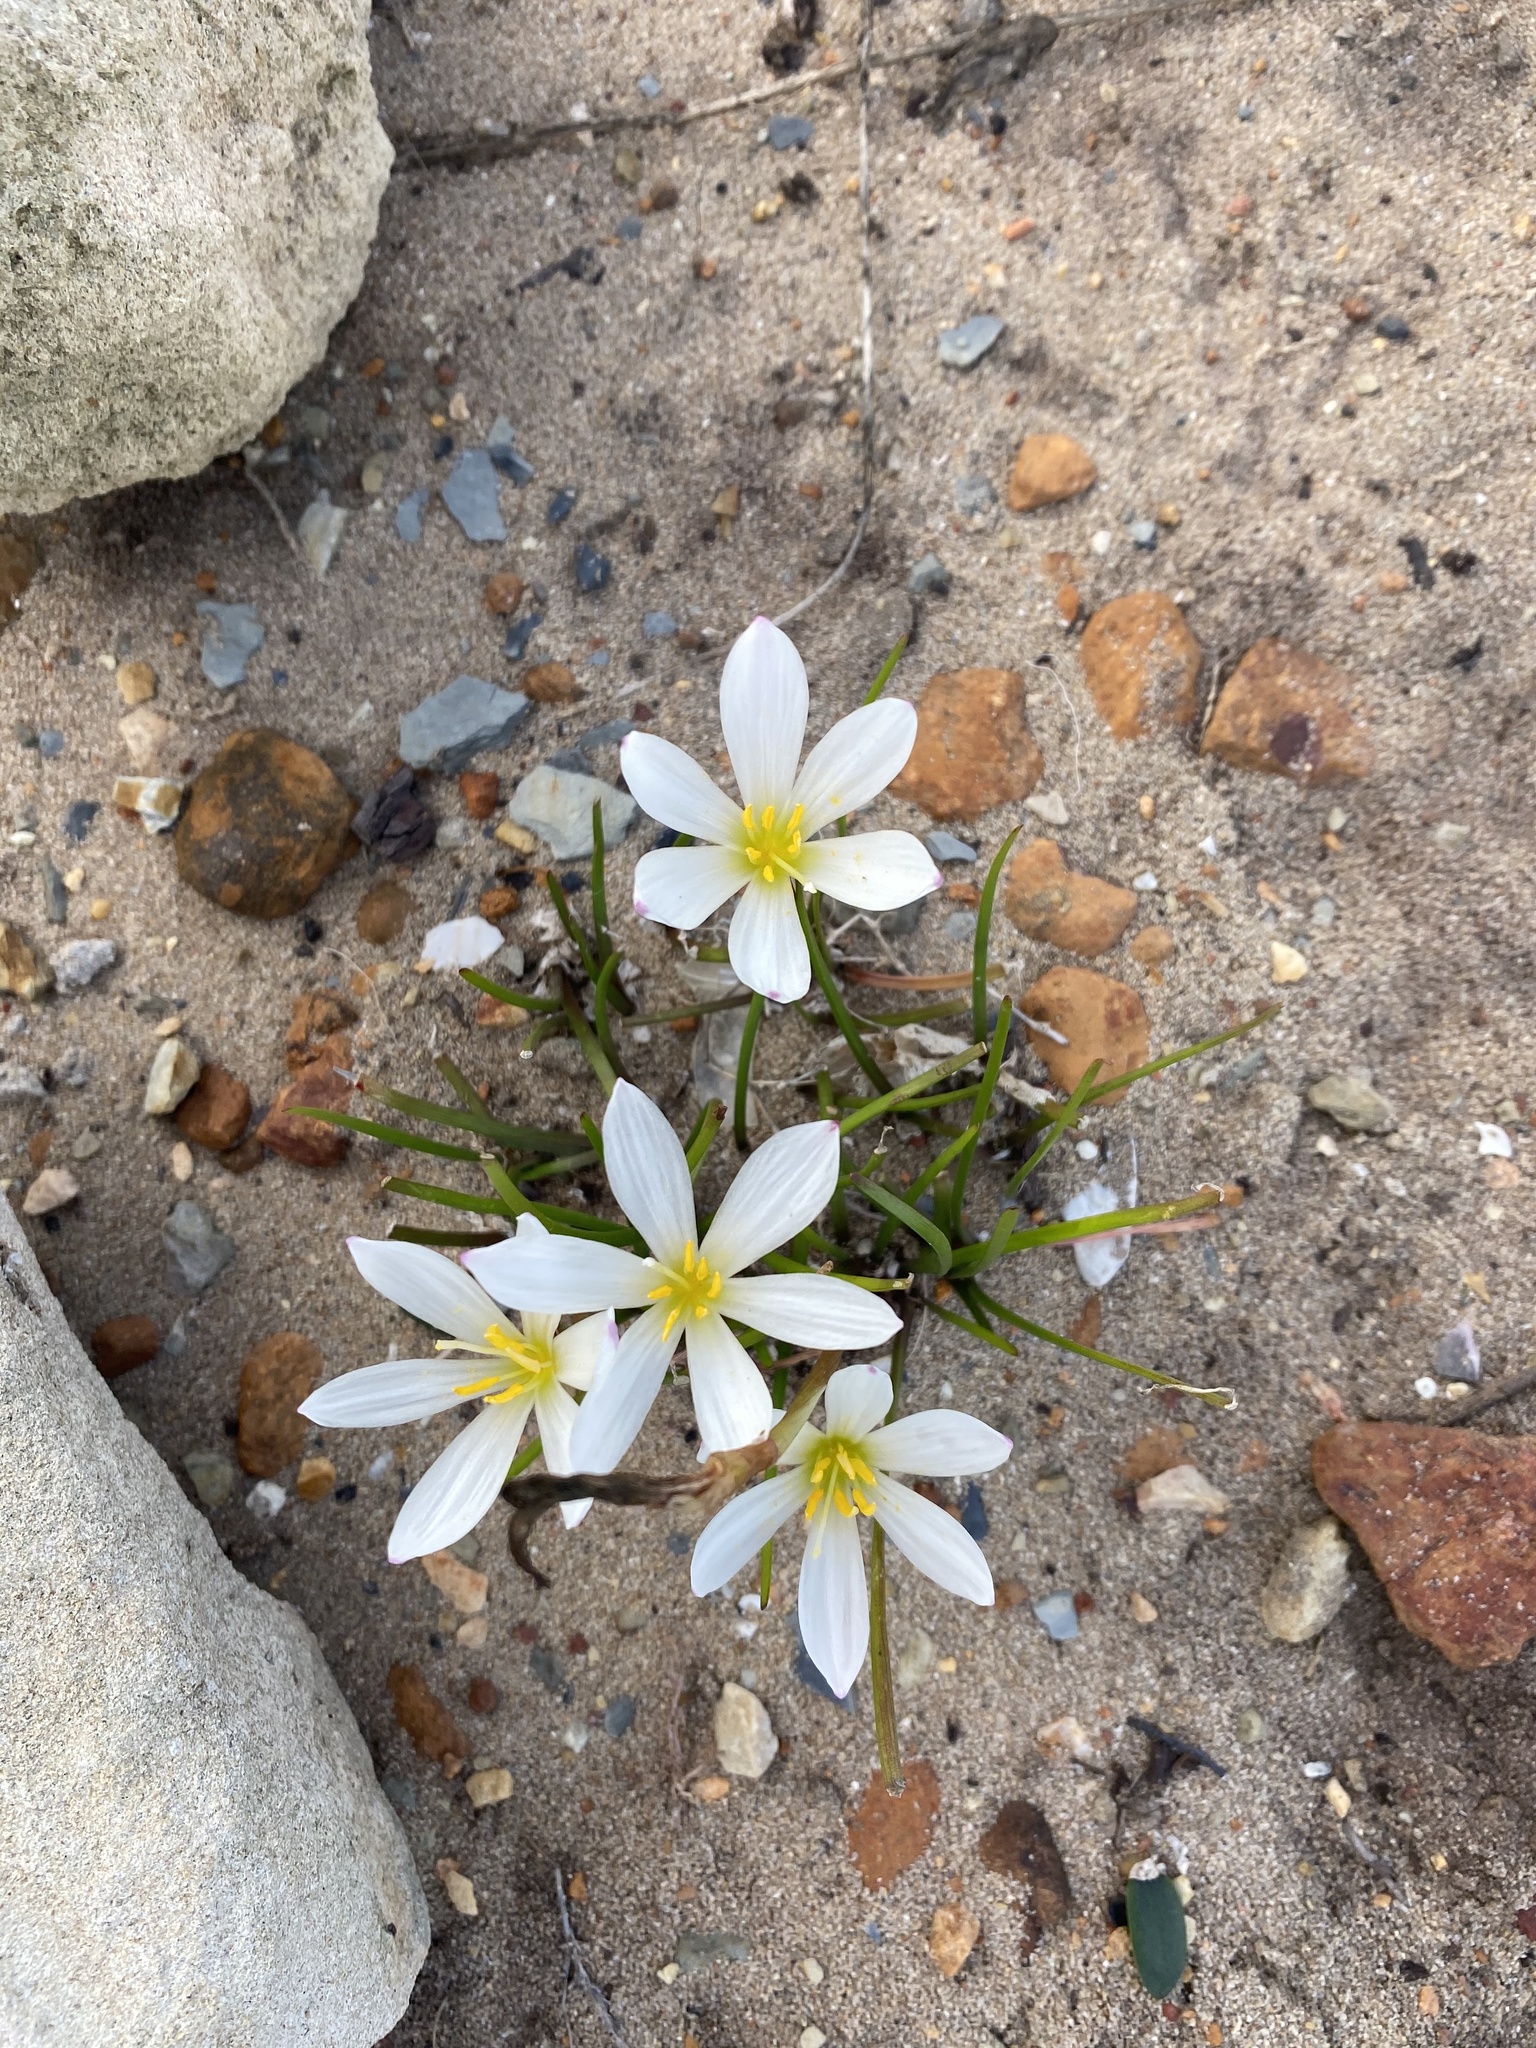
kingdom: Plantae
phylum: Tracheophyta
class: Liliopsida
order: Asparagales
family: Amaryllidaceae
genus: Zephyranthes
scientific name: Zephyranthes candida
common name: Autumn zephyrlily
